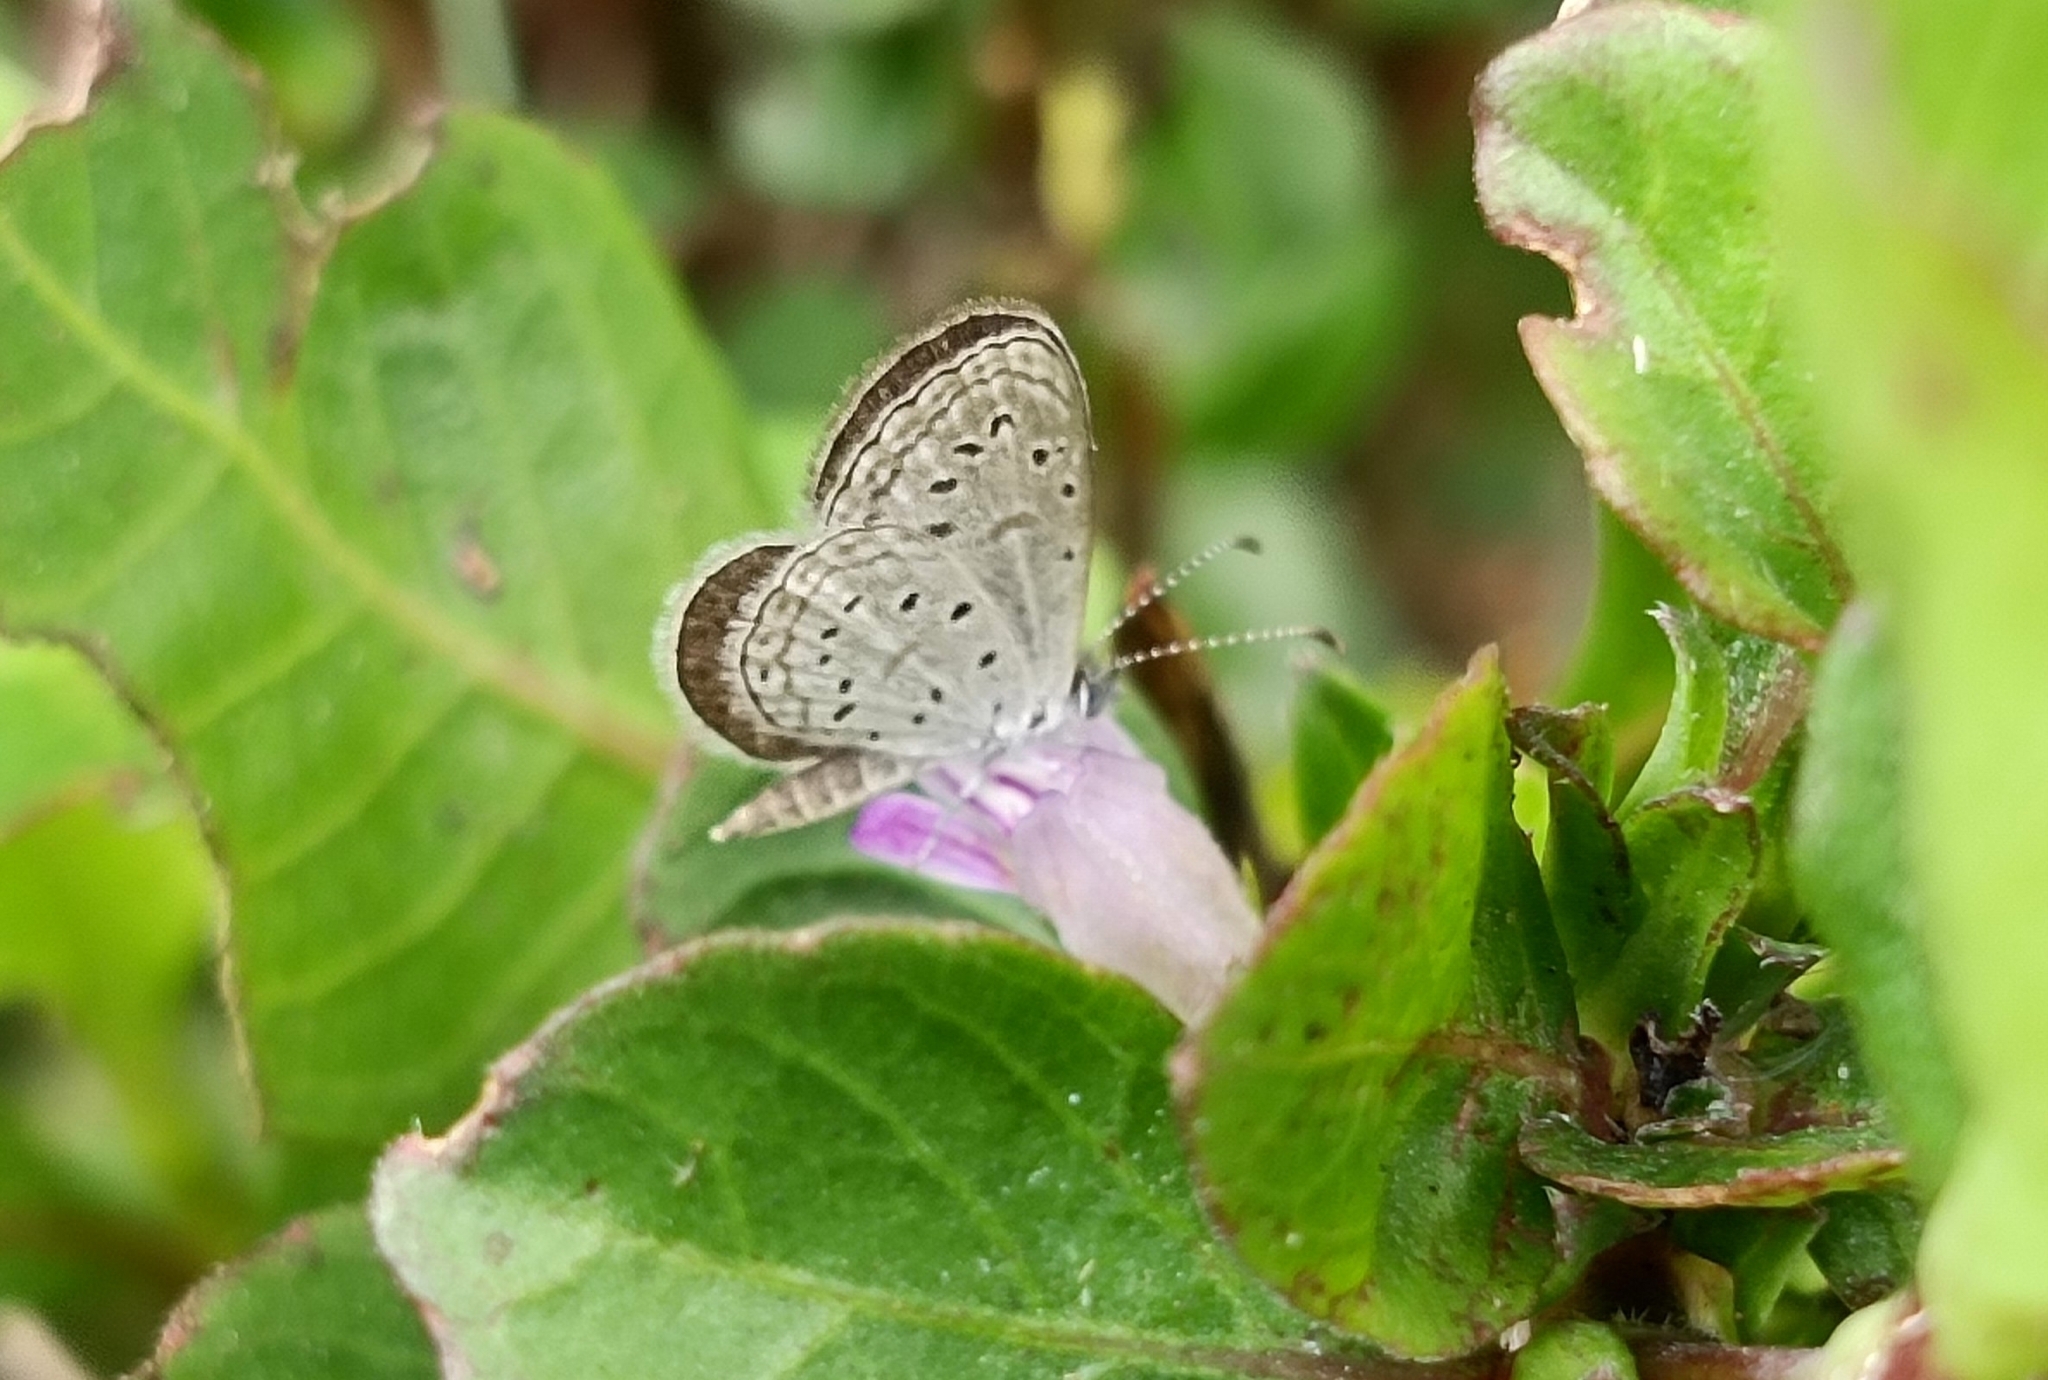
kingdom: Animalia
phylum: Arthropoda
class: Insecta
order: Lepidoptera
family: Lycaenidae
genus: Zizula
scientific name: Zizula hylax
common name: Gaika blue
